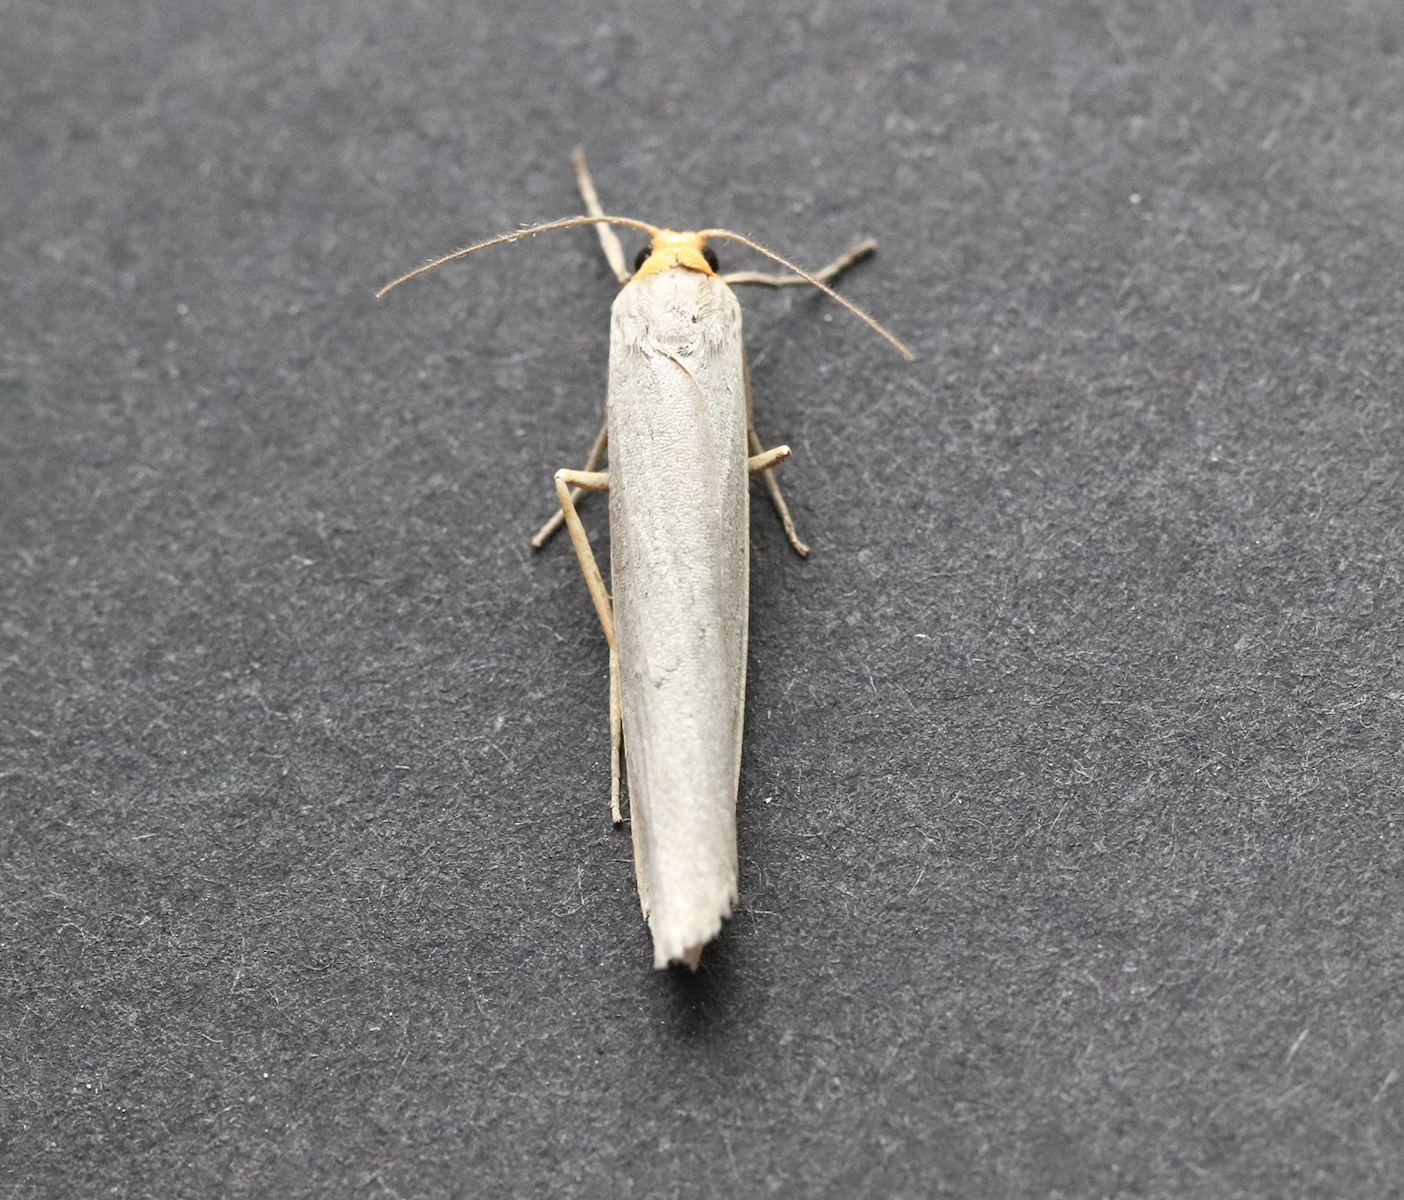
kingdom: Animalia
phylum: Arthropoda
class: Insecta
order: Lepidoptera
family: Erebidae
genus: Eilema
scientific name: Eilema caniola
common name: Hoary footman
